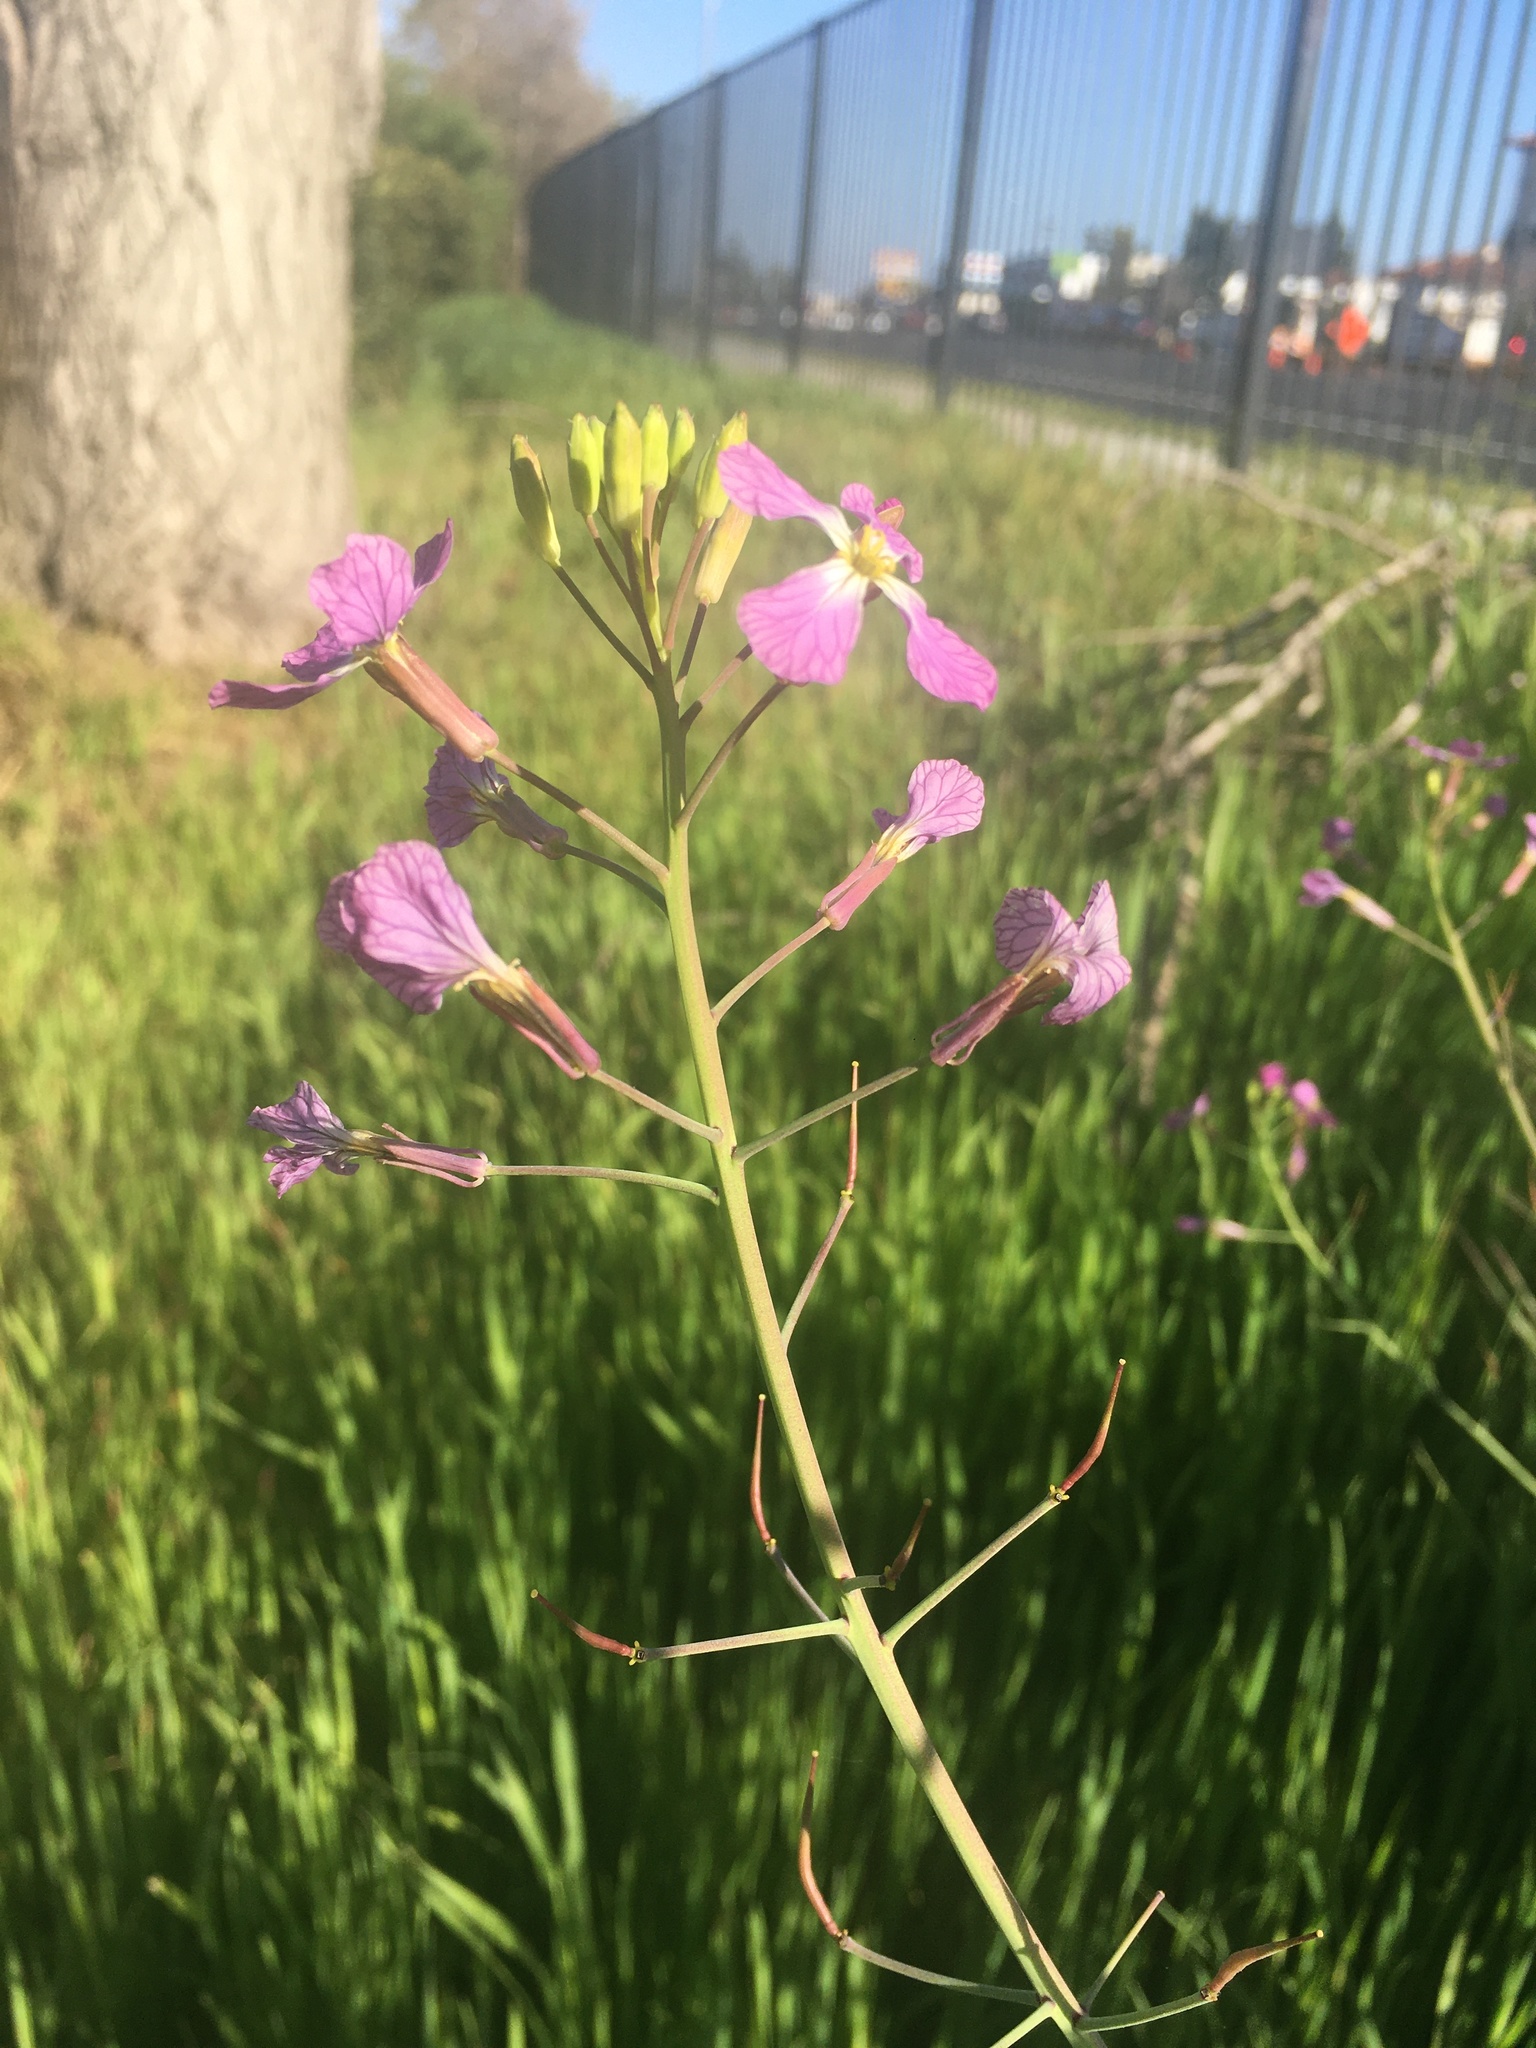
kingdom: Plantae
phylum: Tracheophyta
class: Magnoliopsida
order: Brassicales
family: Brassicaceae
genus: Raphanus
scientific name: Raphanus sativus
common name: Cultivated radish
